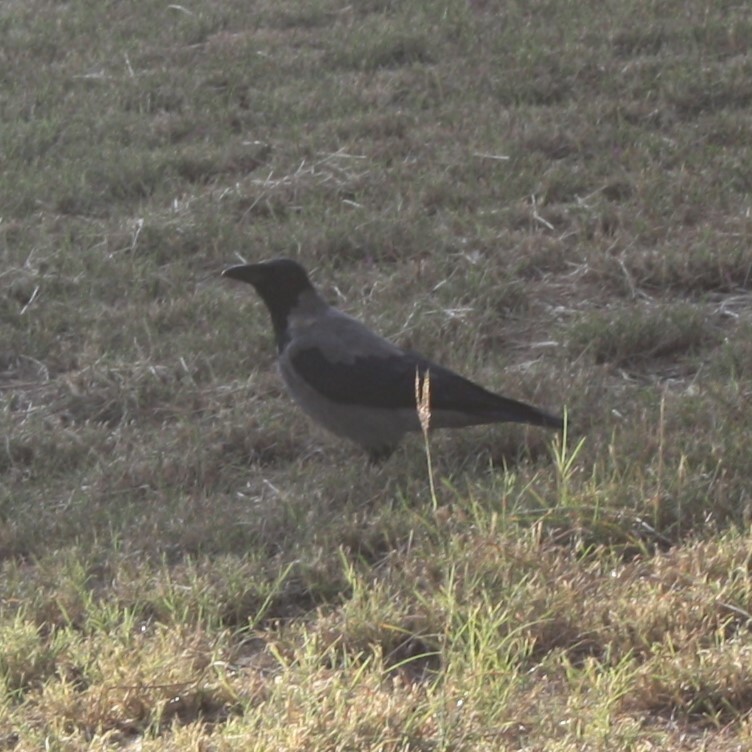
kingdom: Animalia
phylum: Chordata
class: Aves
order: Passeriformes
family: Corvidae
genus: Corvus
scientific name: Corvus cornix
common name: Hooded crow
